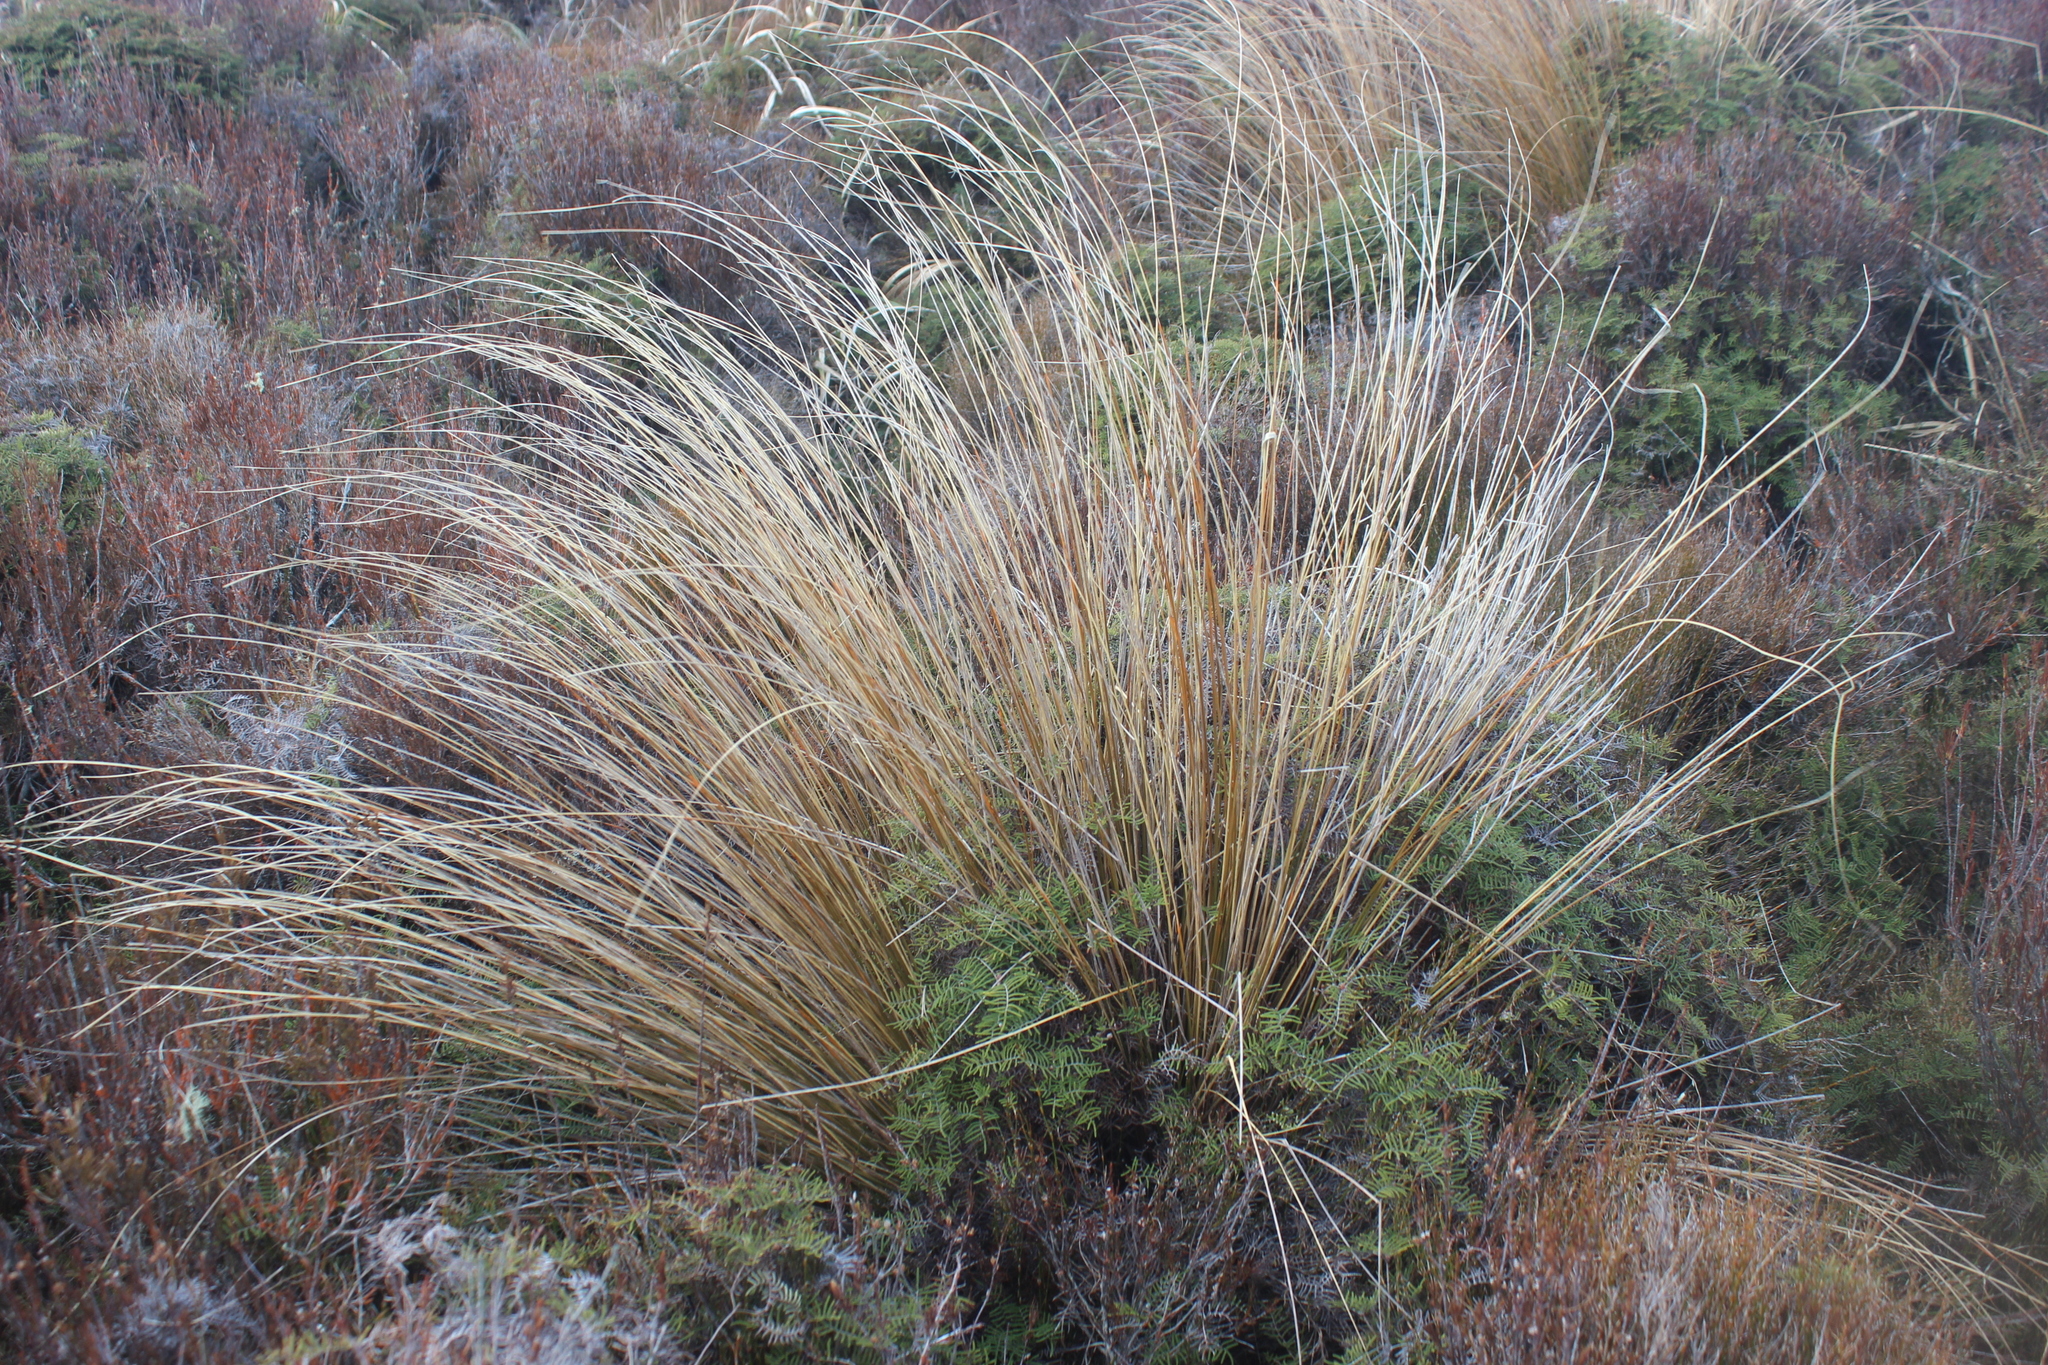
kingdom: Plantae
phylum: Tracheophyta
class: Liliopsida
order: Poales
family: Poaceae
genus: Chionochloa
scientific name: Chionochloa rubra
